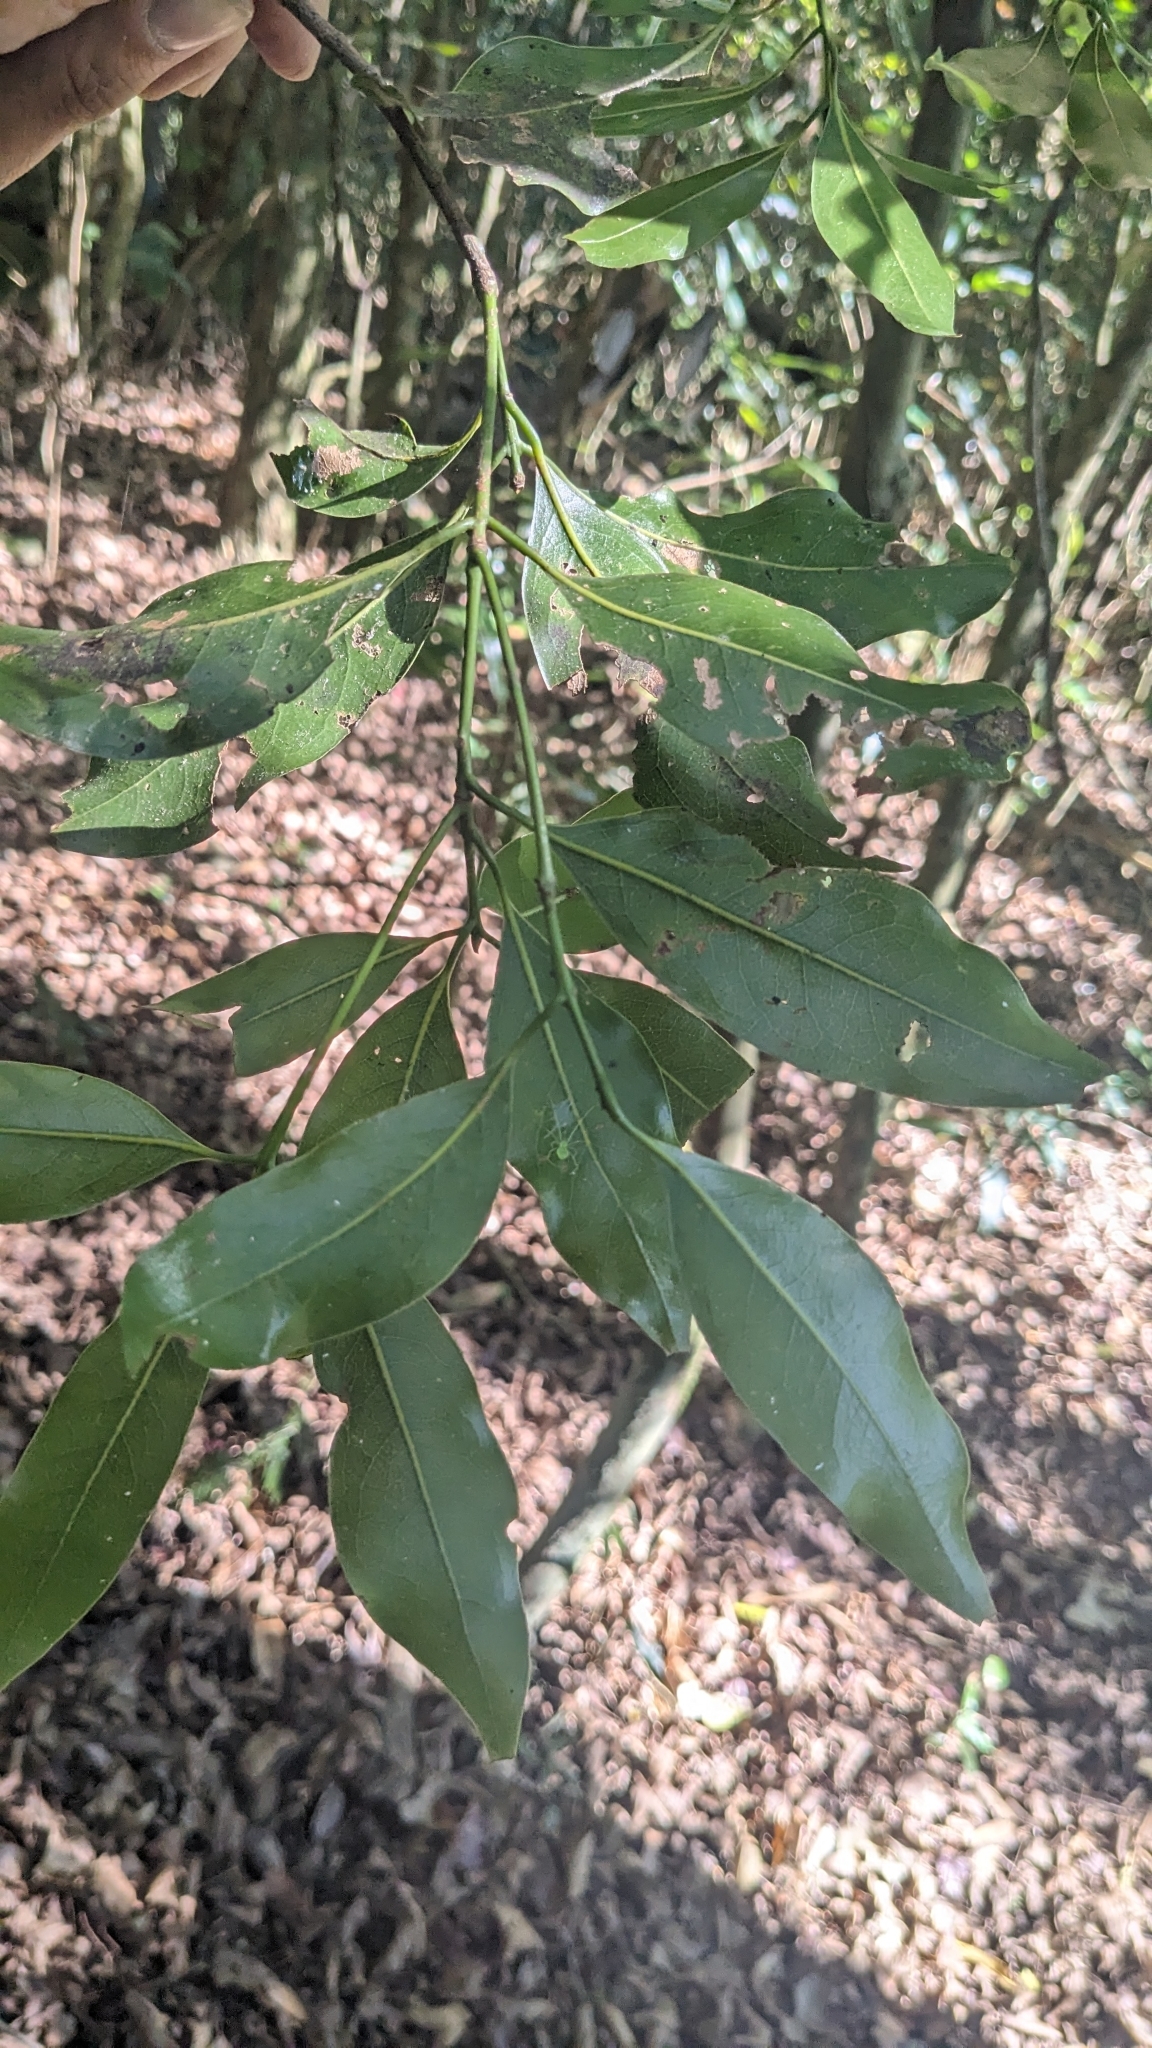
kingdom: Plantae
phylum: Tracheophyta
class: Magnoliopsida
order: Laurales
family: Lauraceae
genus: Beilschmiedia
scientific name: Beilschmiedia erythrophloia
